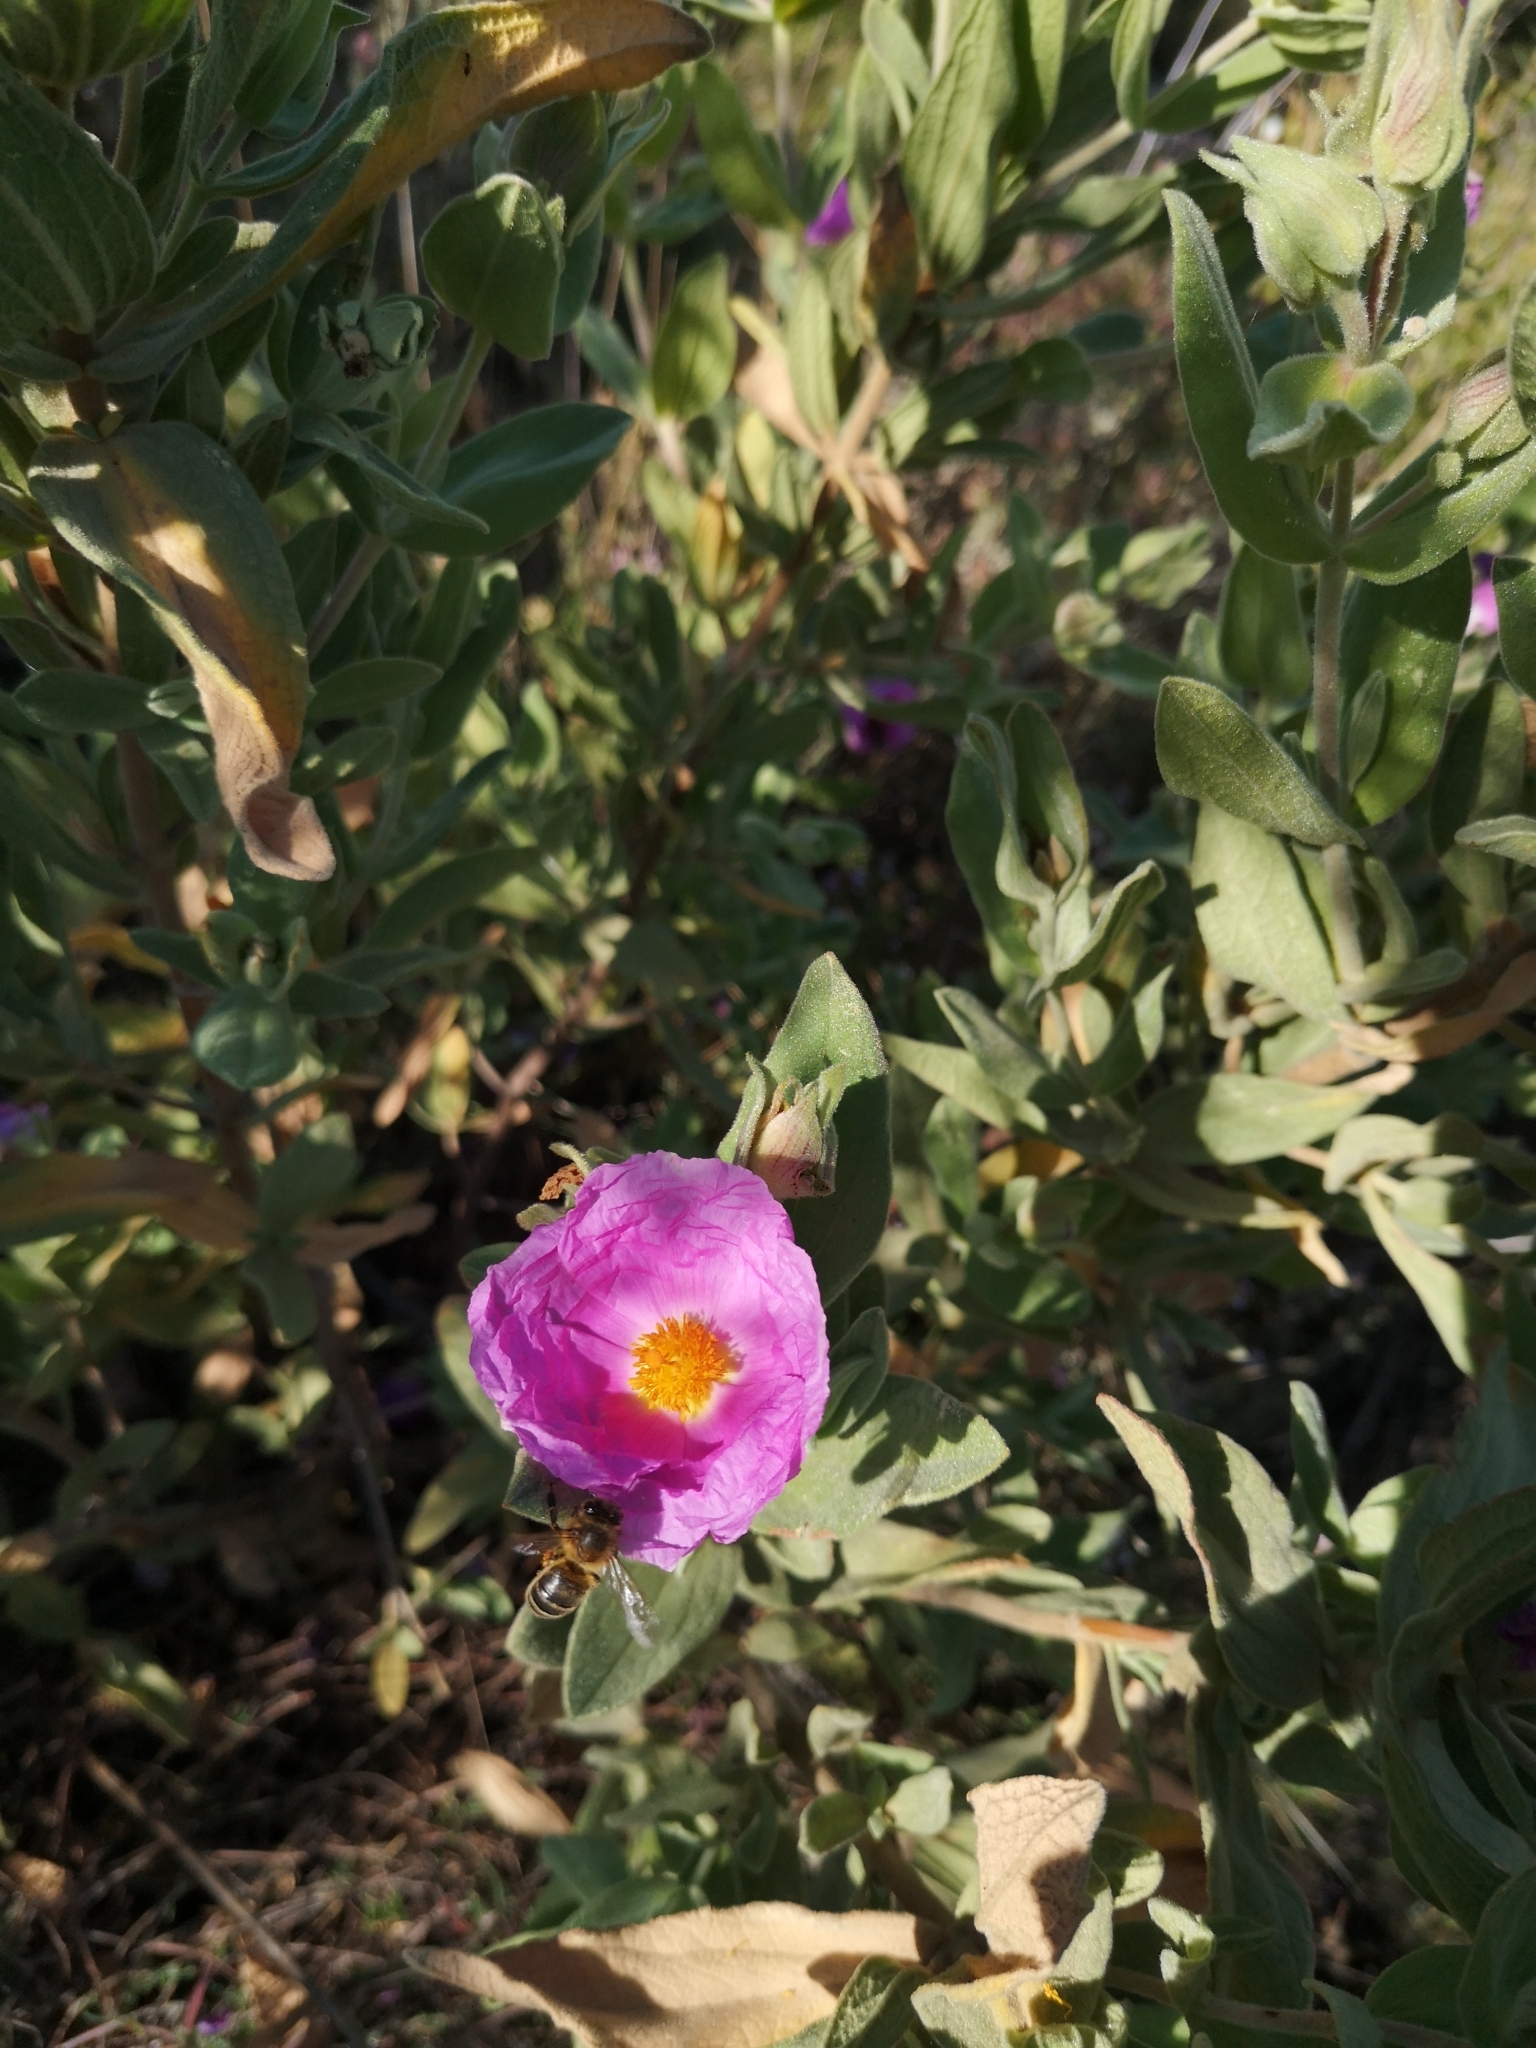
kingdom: Plantae
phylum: Tracheophyta
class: Magnoliopsida
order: Malvales
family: Cistaceae
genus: Cistus
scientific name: Cistus albidus
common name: White-leaf rock-rose
